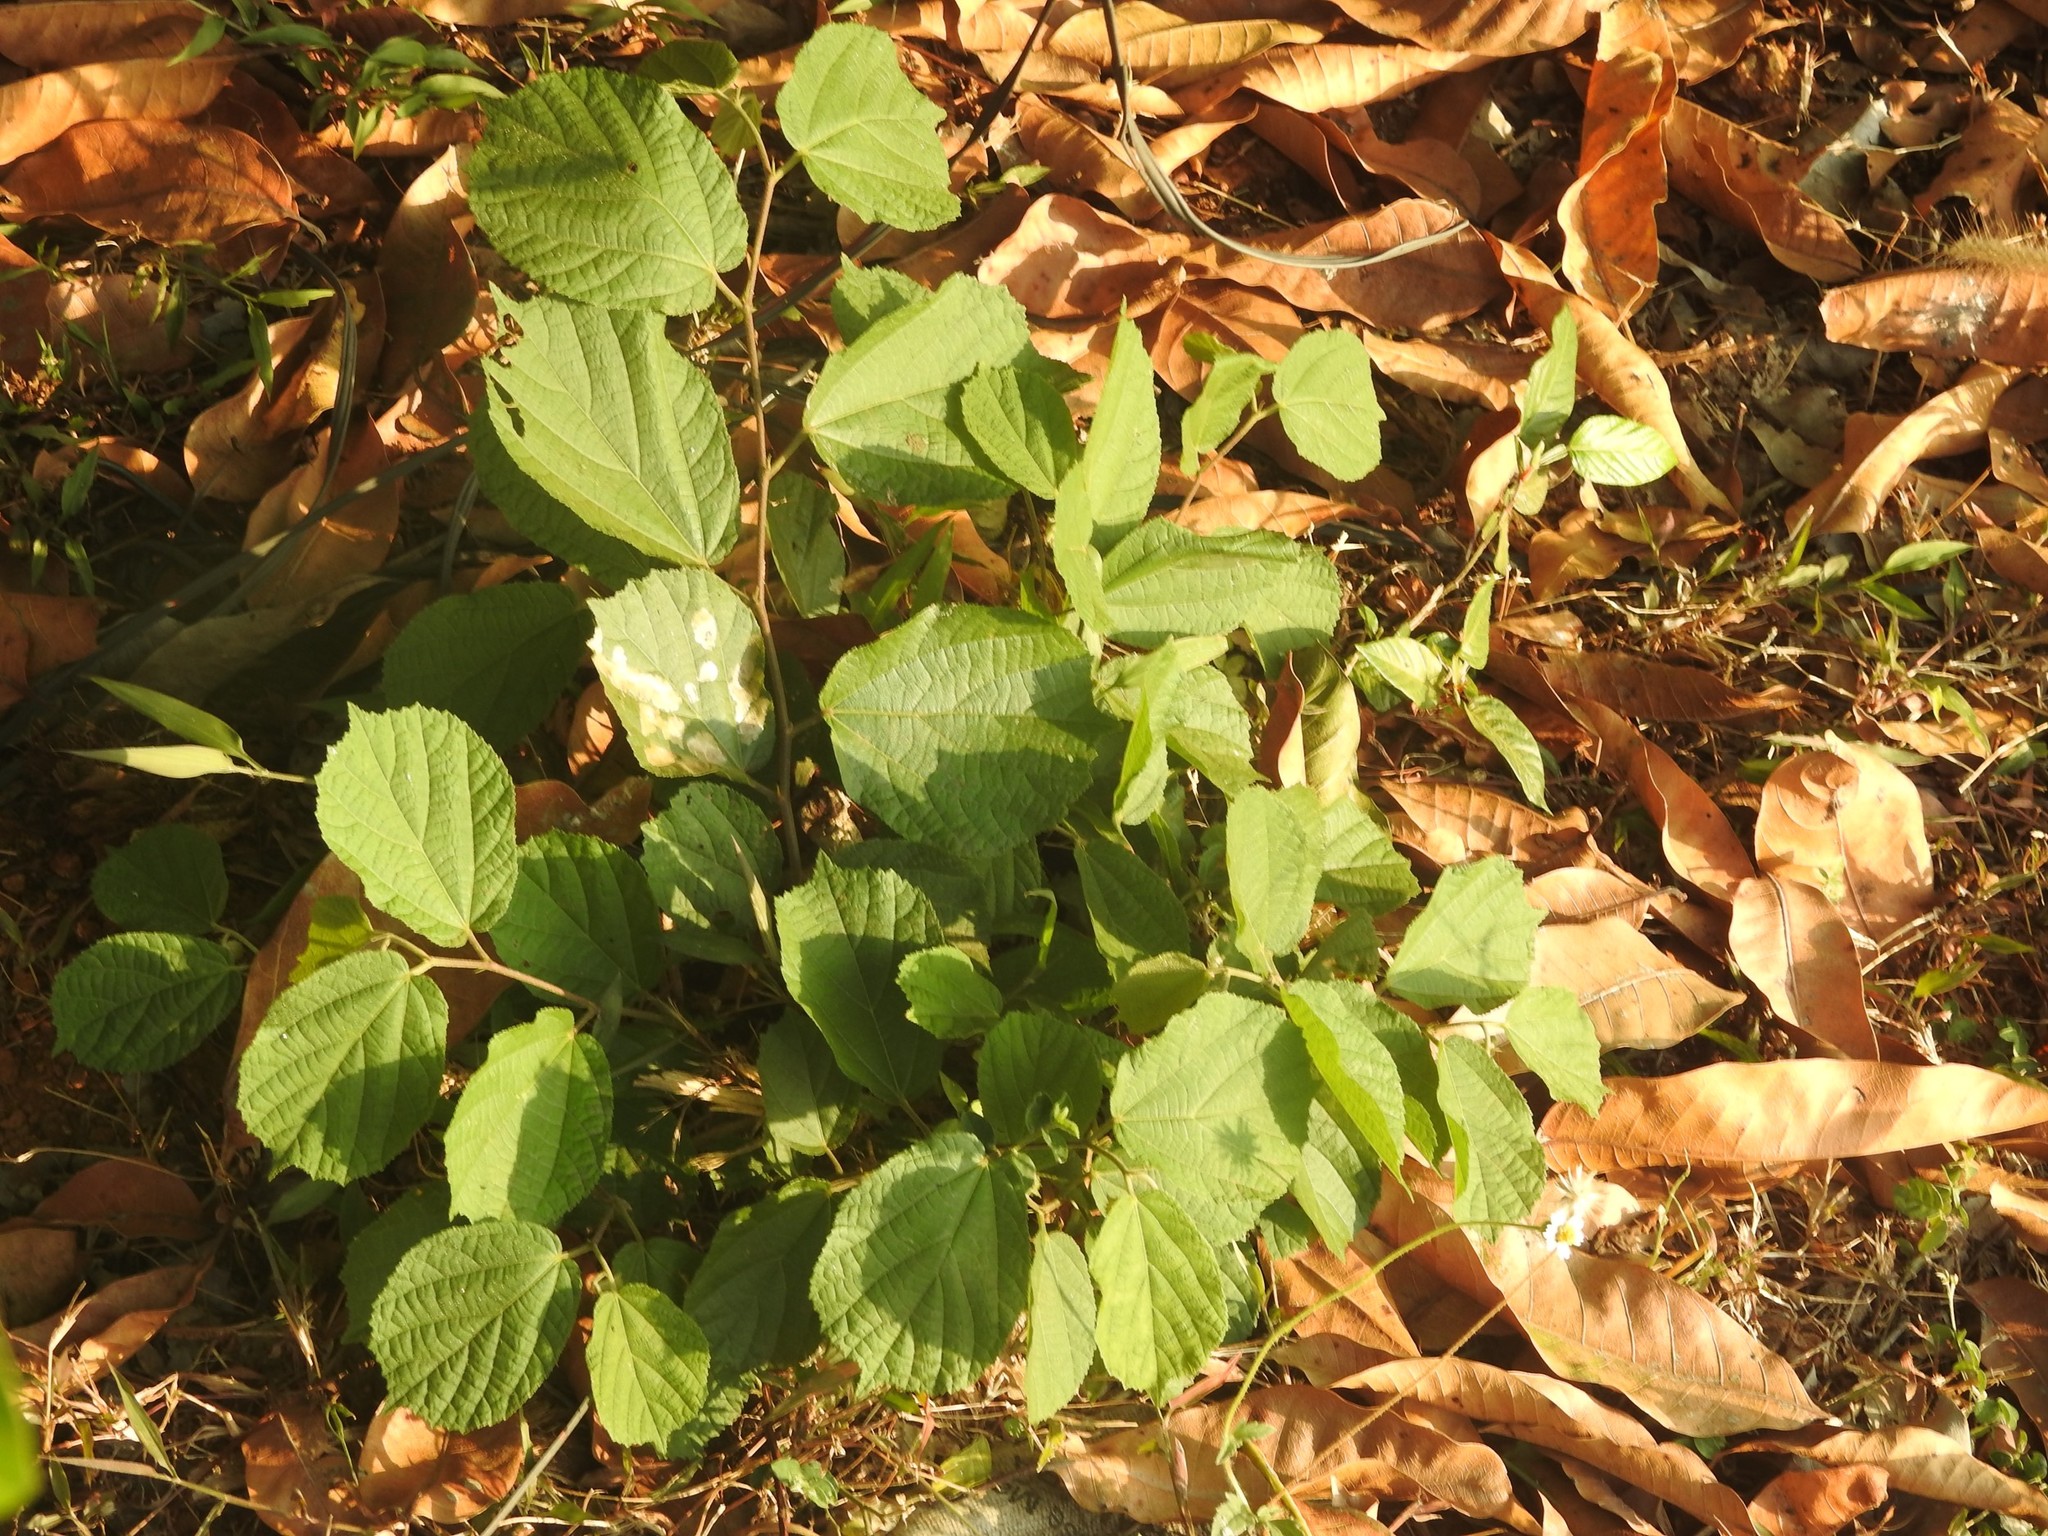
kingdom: Plantae
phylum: Tracheophyta
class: Magnoliopsida
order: Malvales
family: Malvaceae
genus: Helicteres
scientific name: Helicteres isora
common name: East indian screwtree
